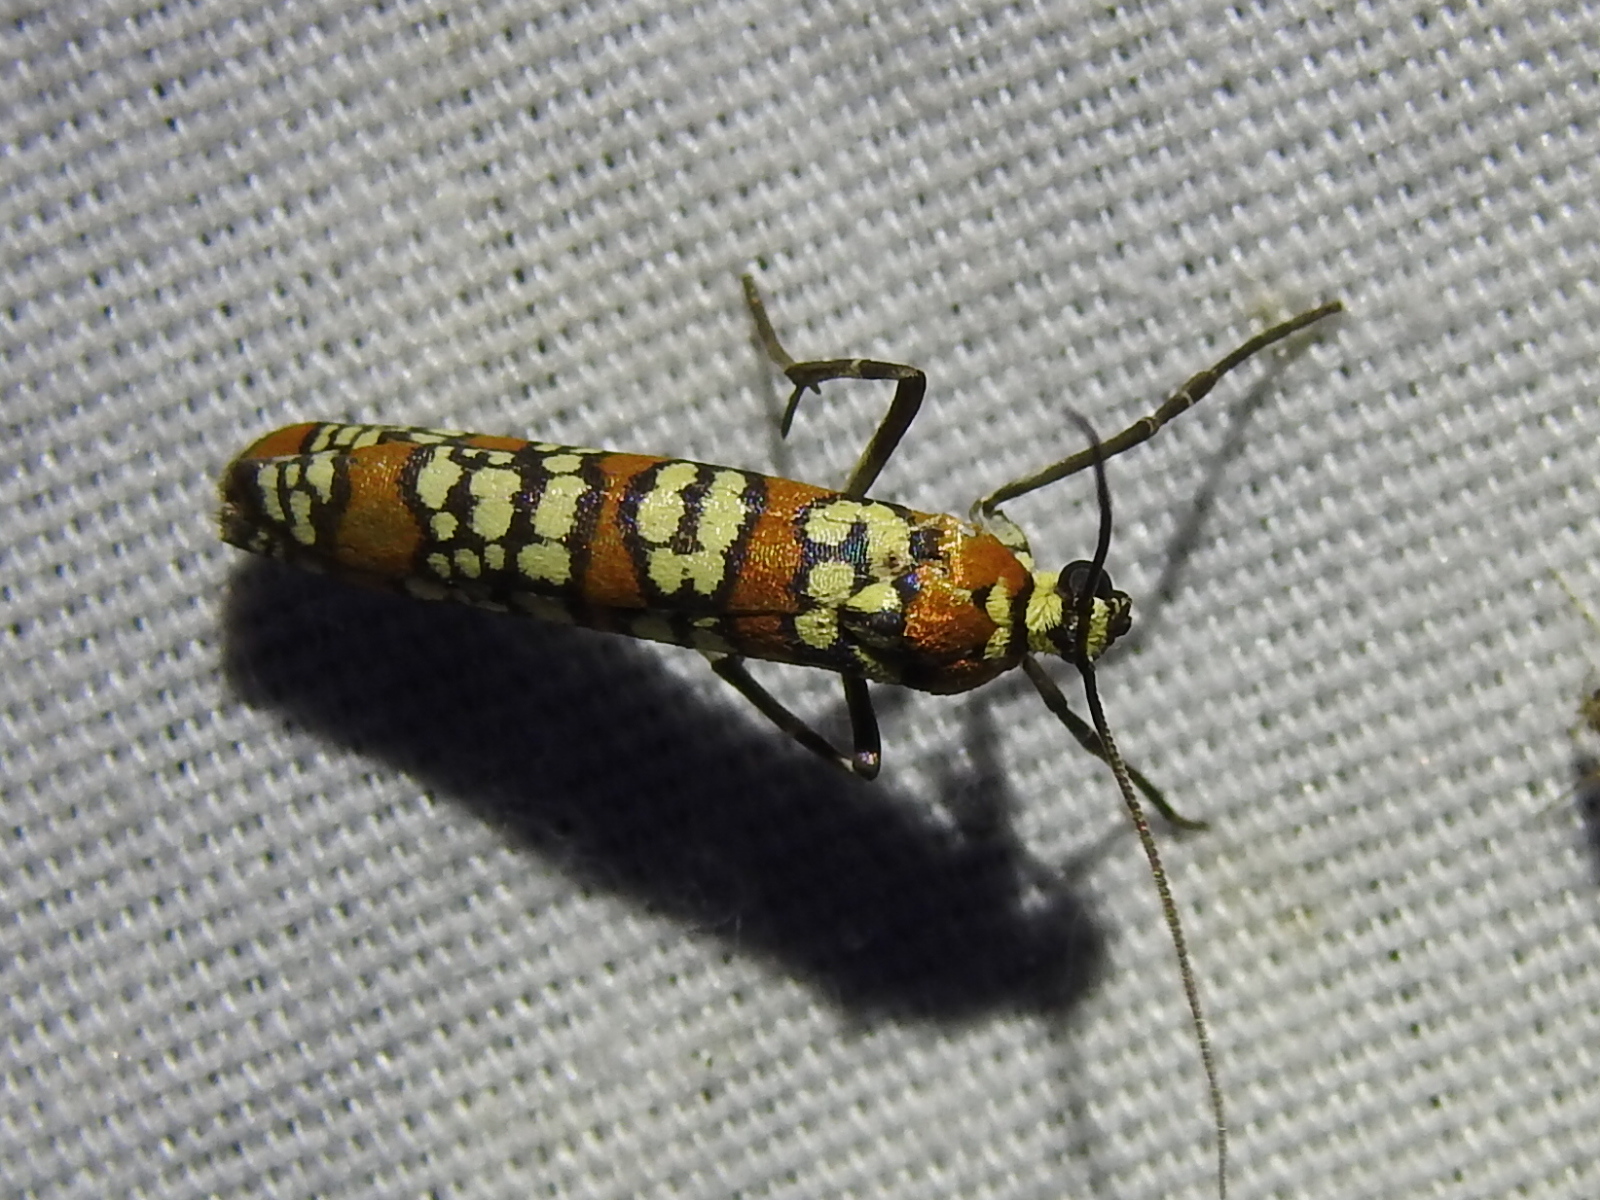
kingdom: Animalia
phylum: Arthropoda
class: Insecta
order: Lepidoptera
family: Attevidae
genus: Atteva
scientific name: Atteva punctella
